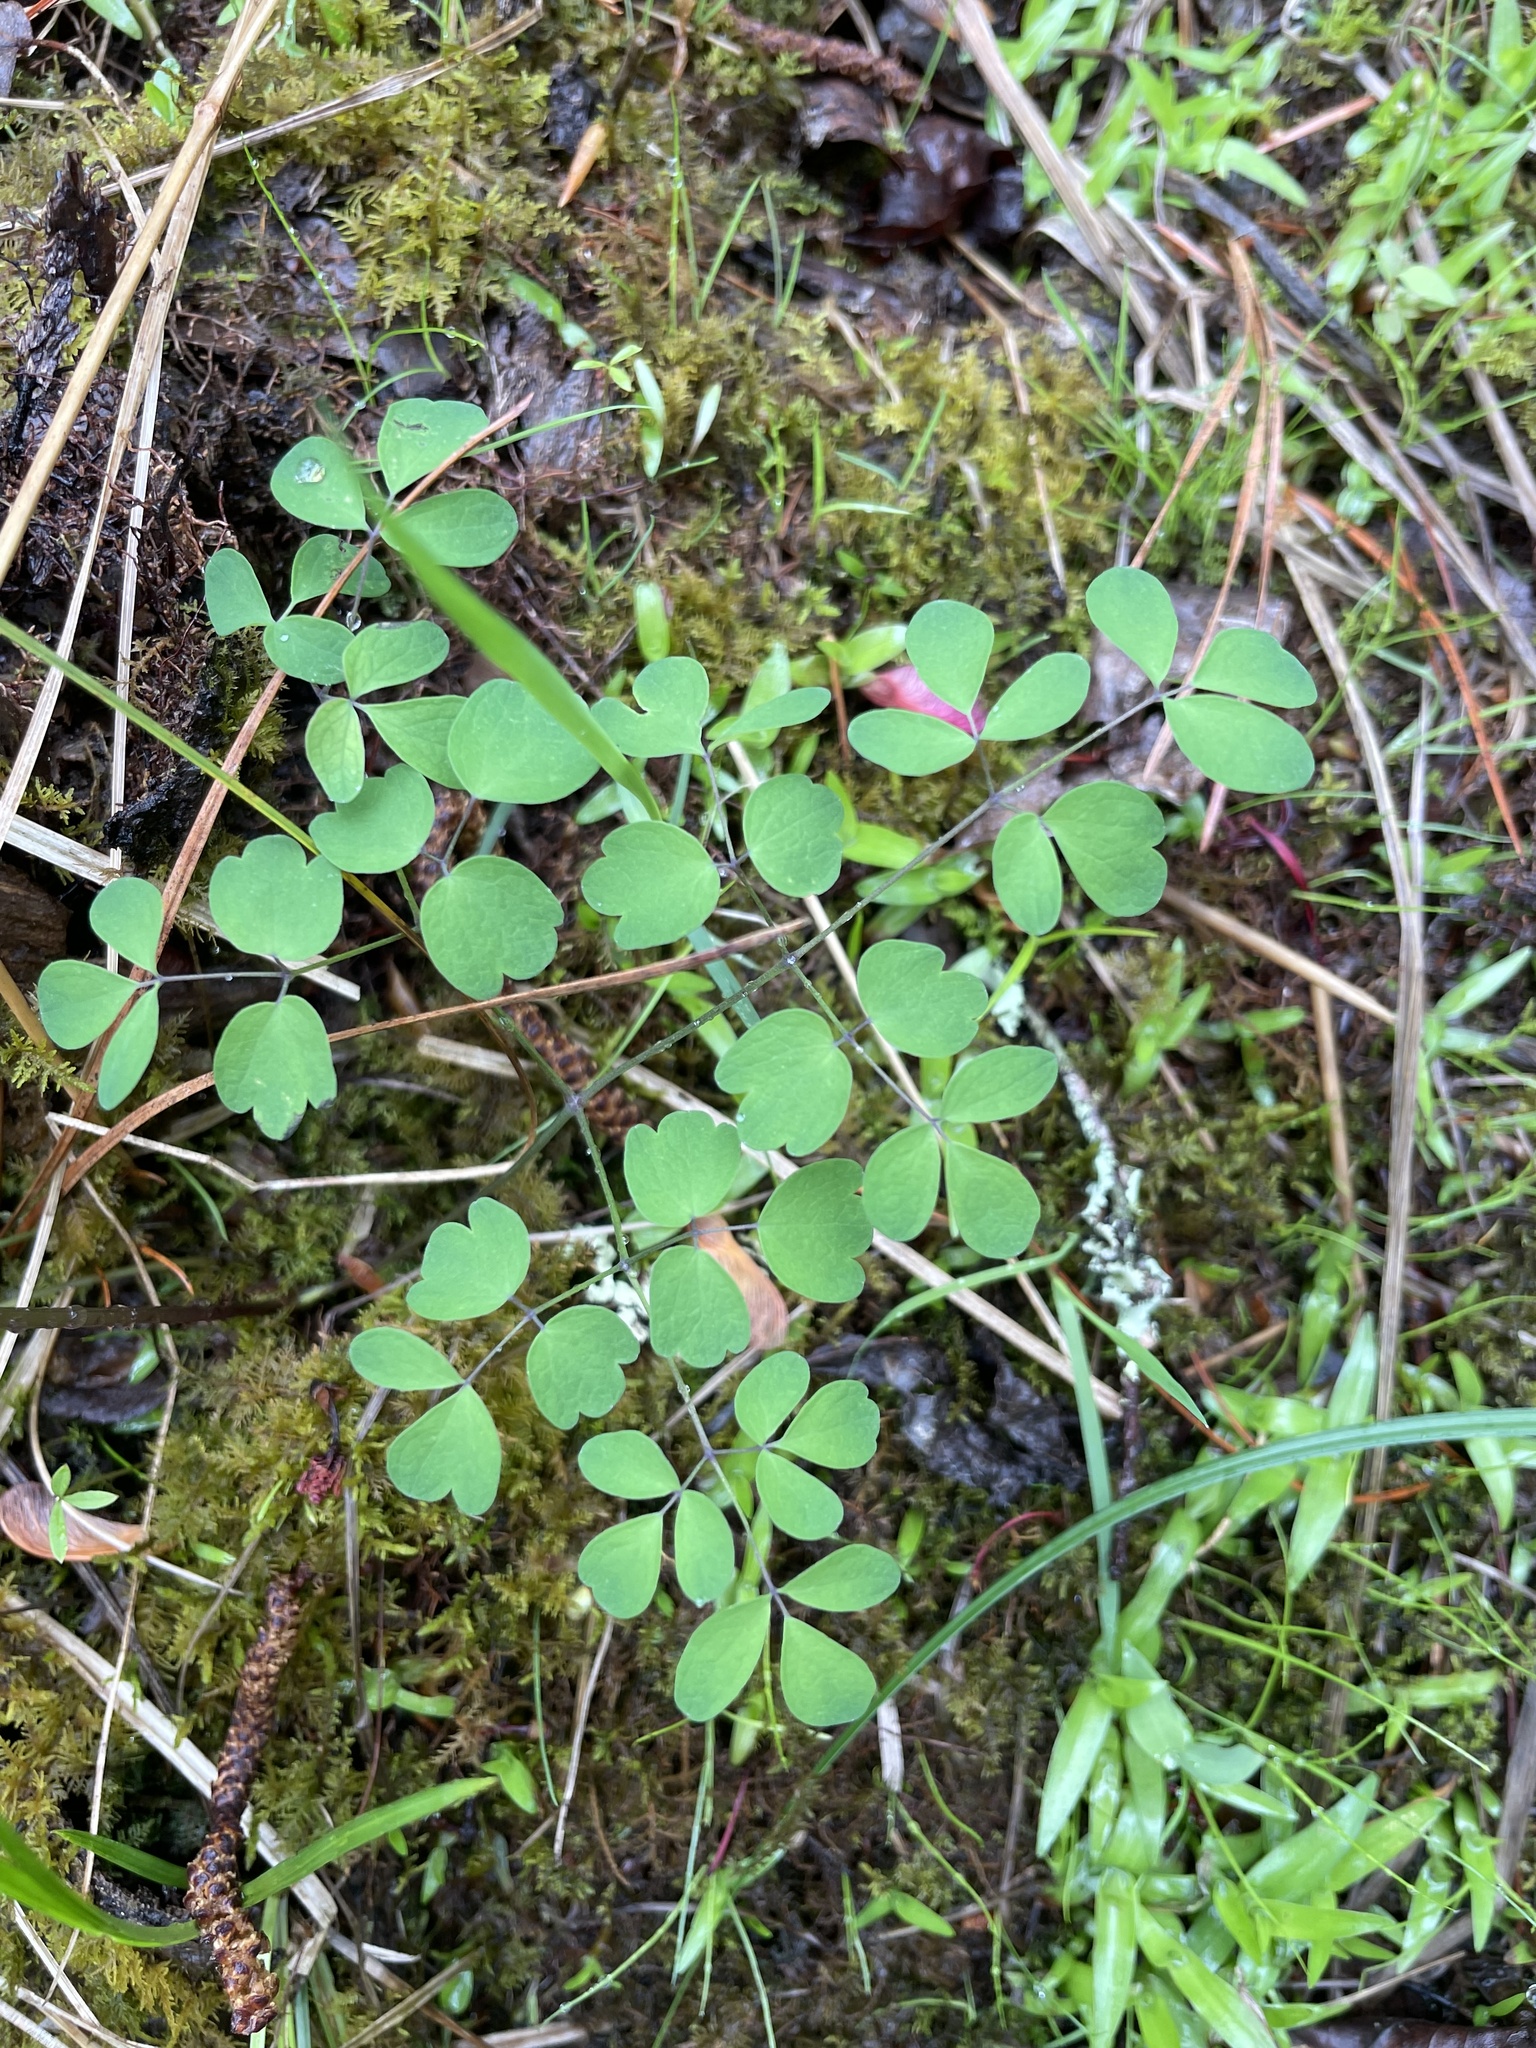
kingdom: Plantae
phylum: Tracheophyta
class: Magnoliopsida
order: Ranunculales
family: Ranunculaceae
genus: Thalictrum
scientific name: Thalictrum macrostylum
